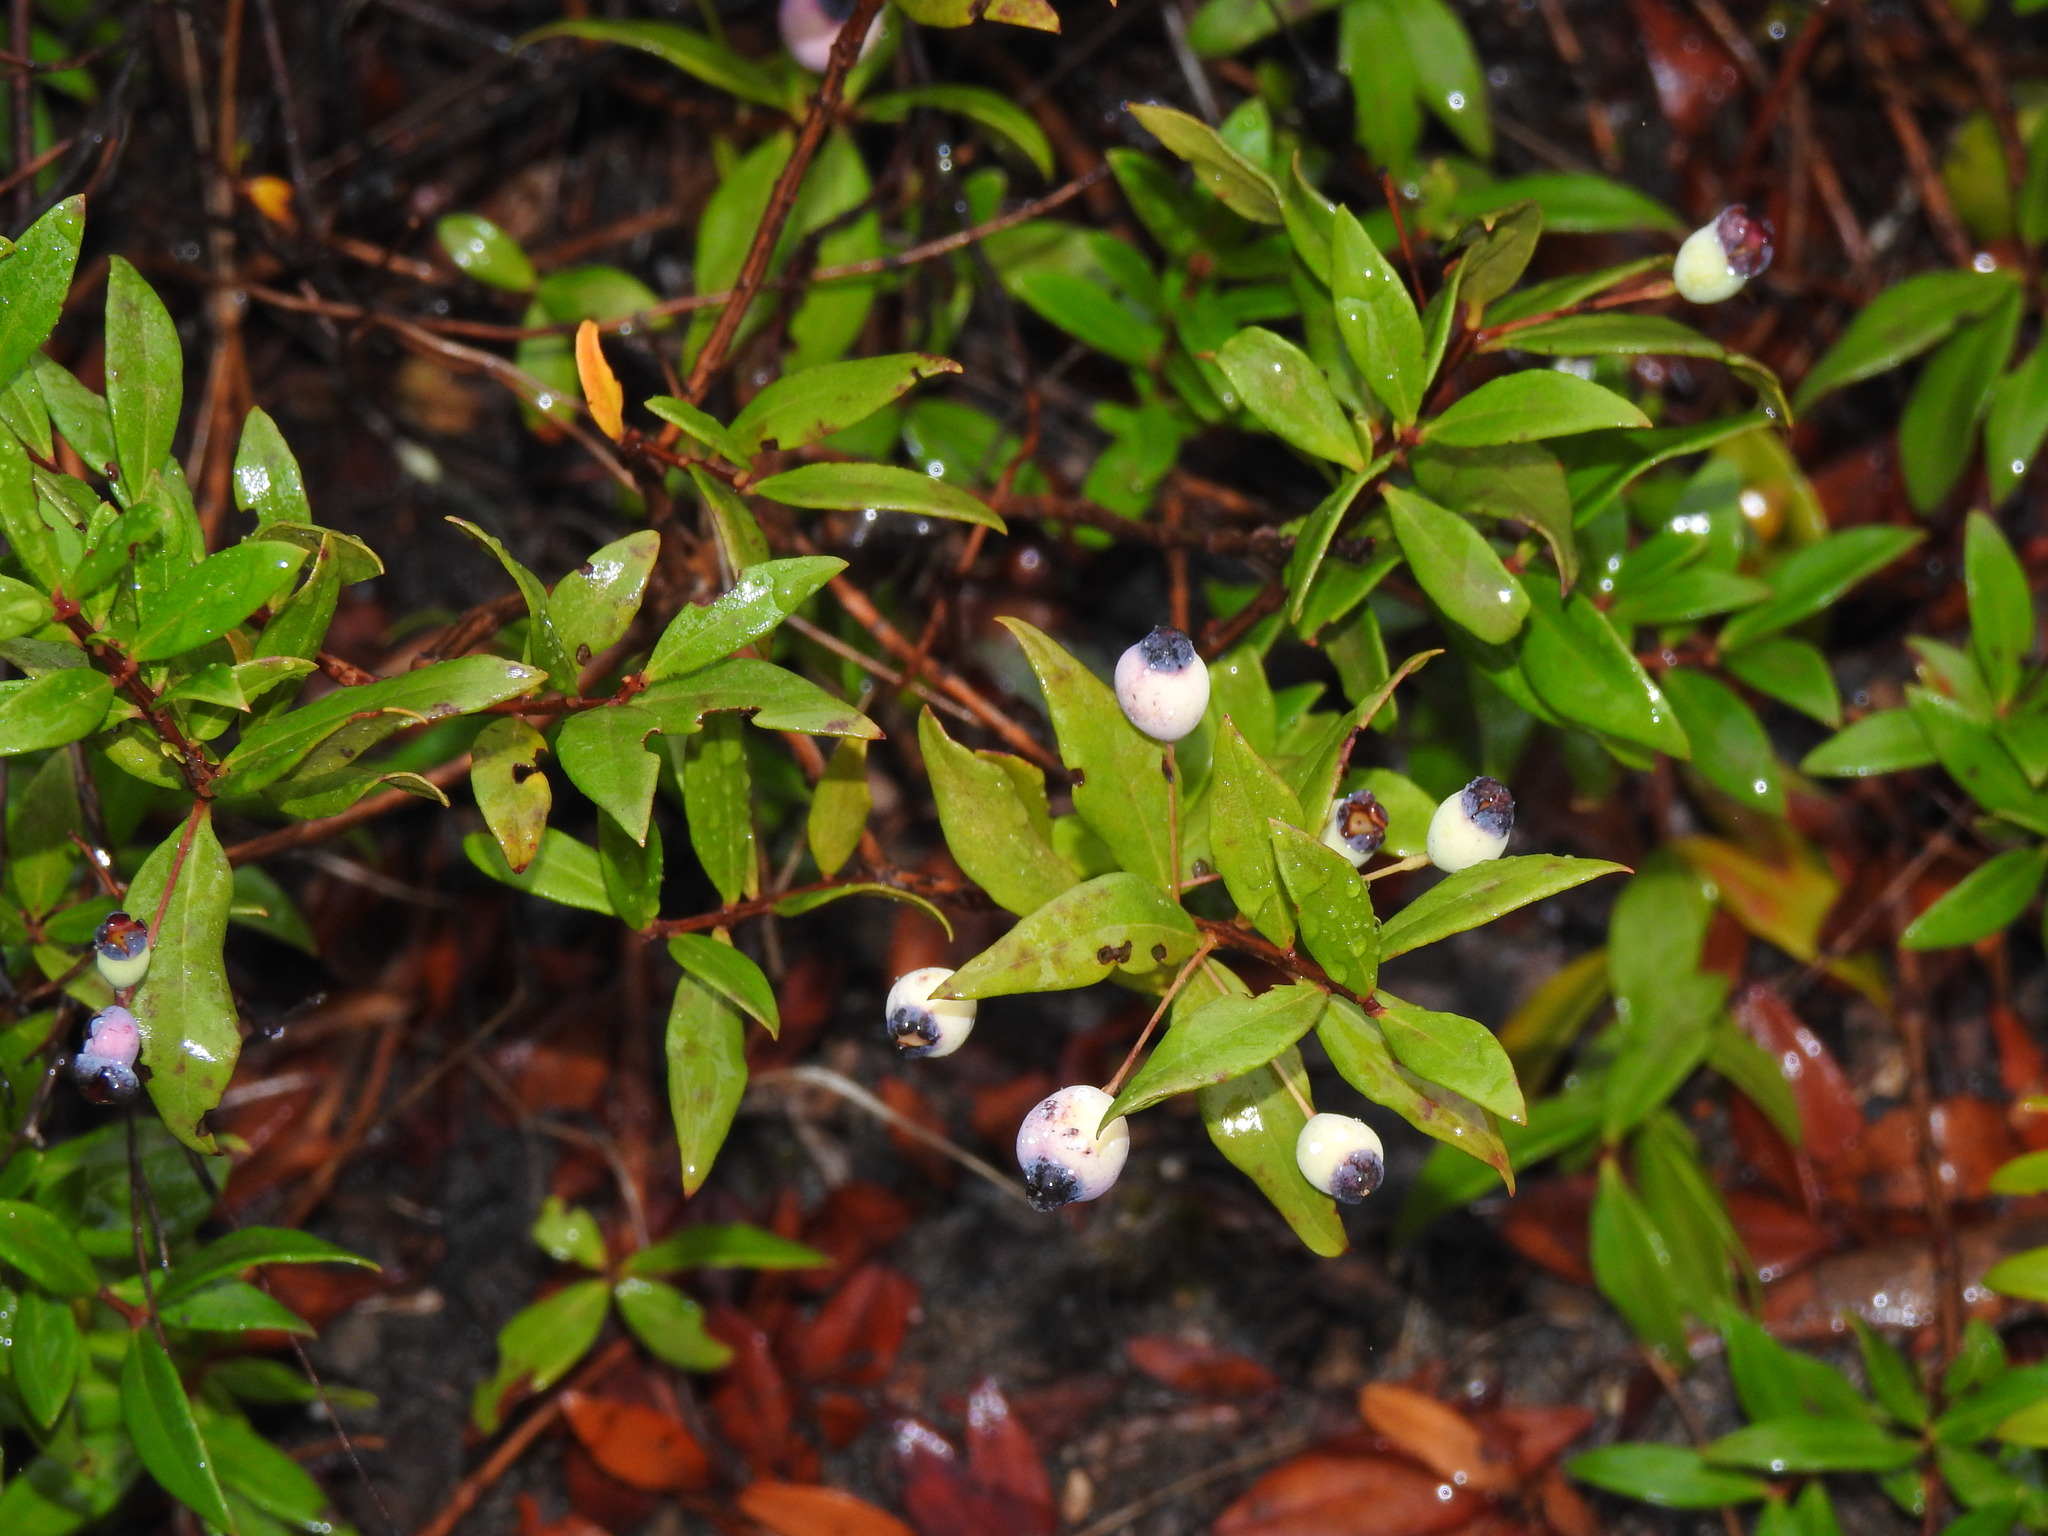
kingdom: Plantae
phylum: Tracheophyta
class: Magnoliopsida
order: Myrtales
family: Myrtaceae
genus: Myrtus
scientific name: Myrtus communis
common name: Myrtle
